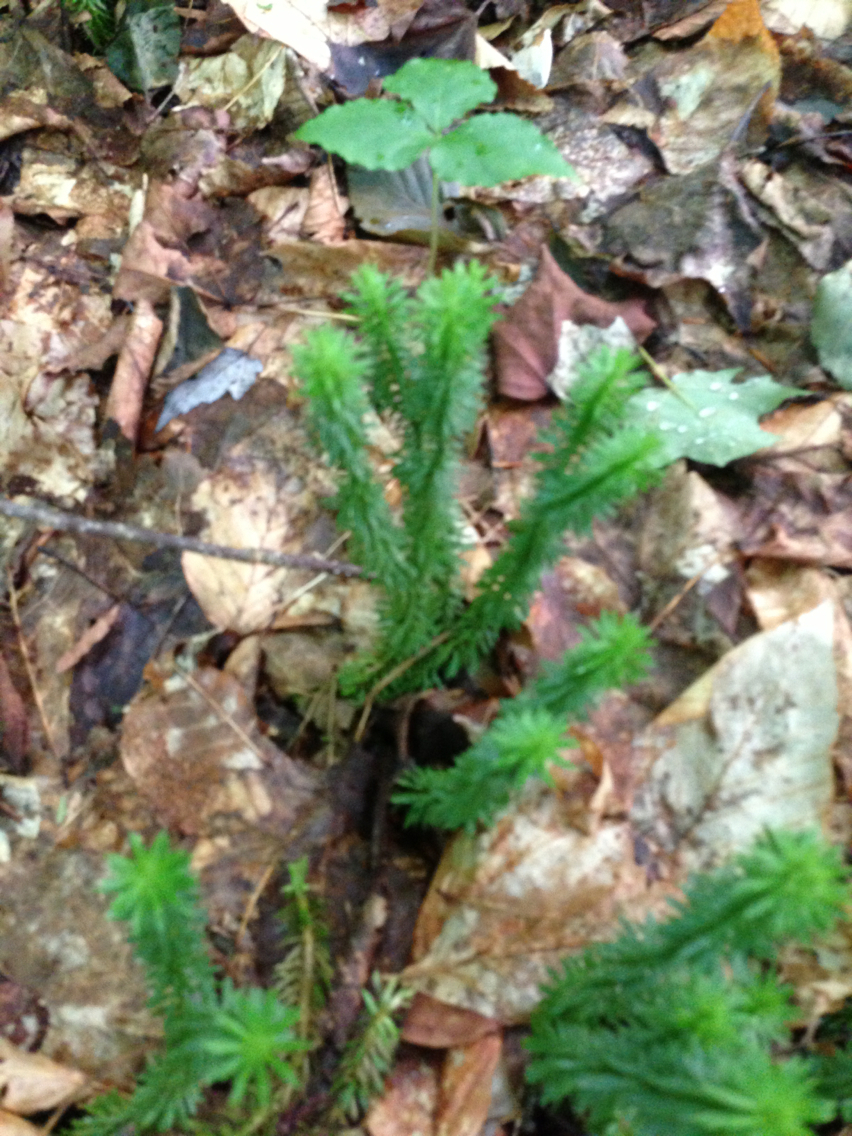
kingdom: Plantae
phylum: Tracheophyta
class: Lycopodiopsida
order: Lycopodiales
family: Lycopodiaceae
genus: Huperzia
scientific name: Huperzia lucidula
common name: Shining clubmoss
